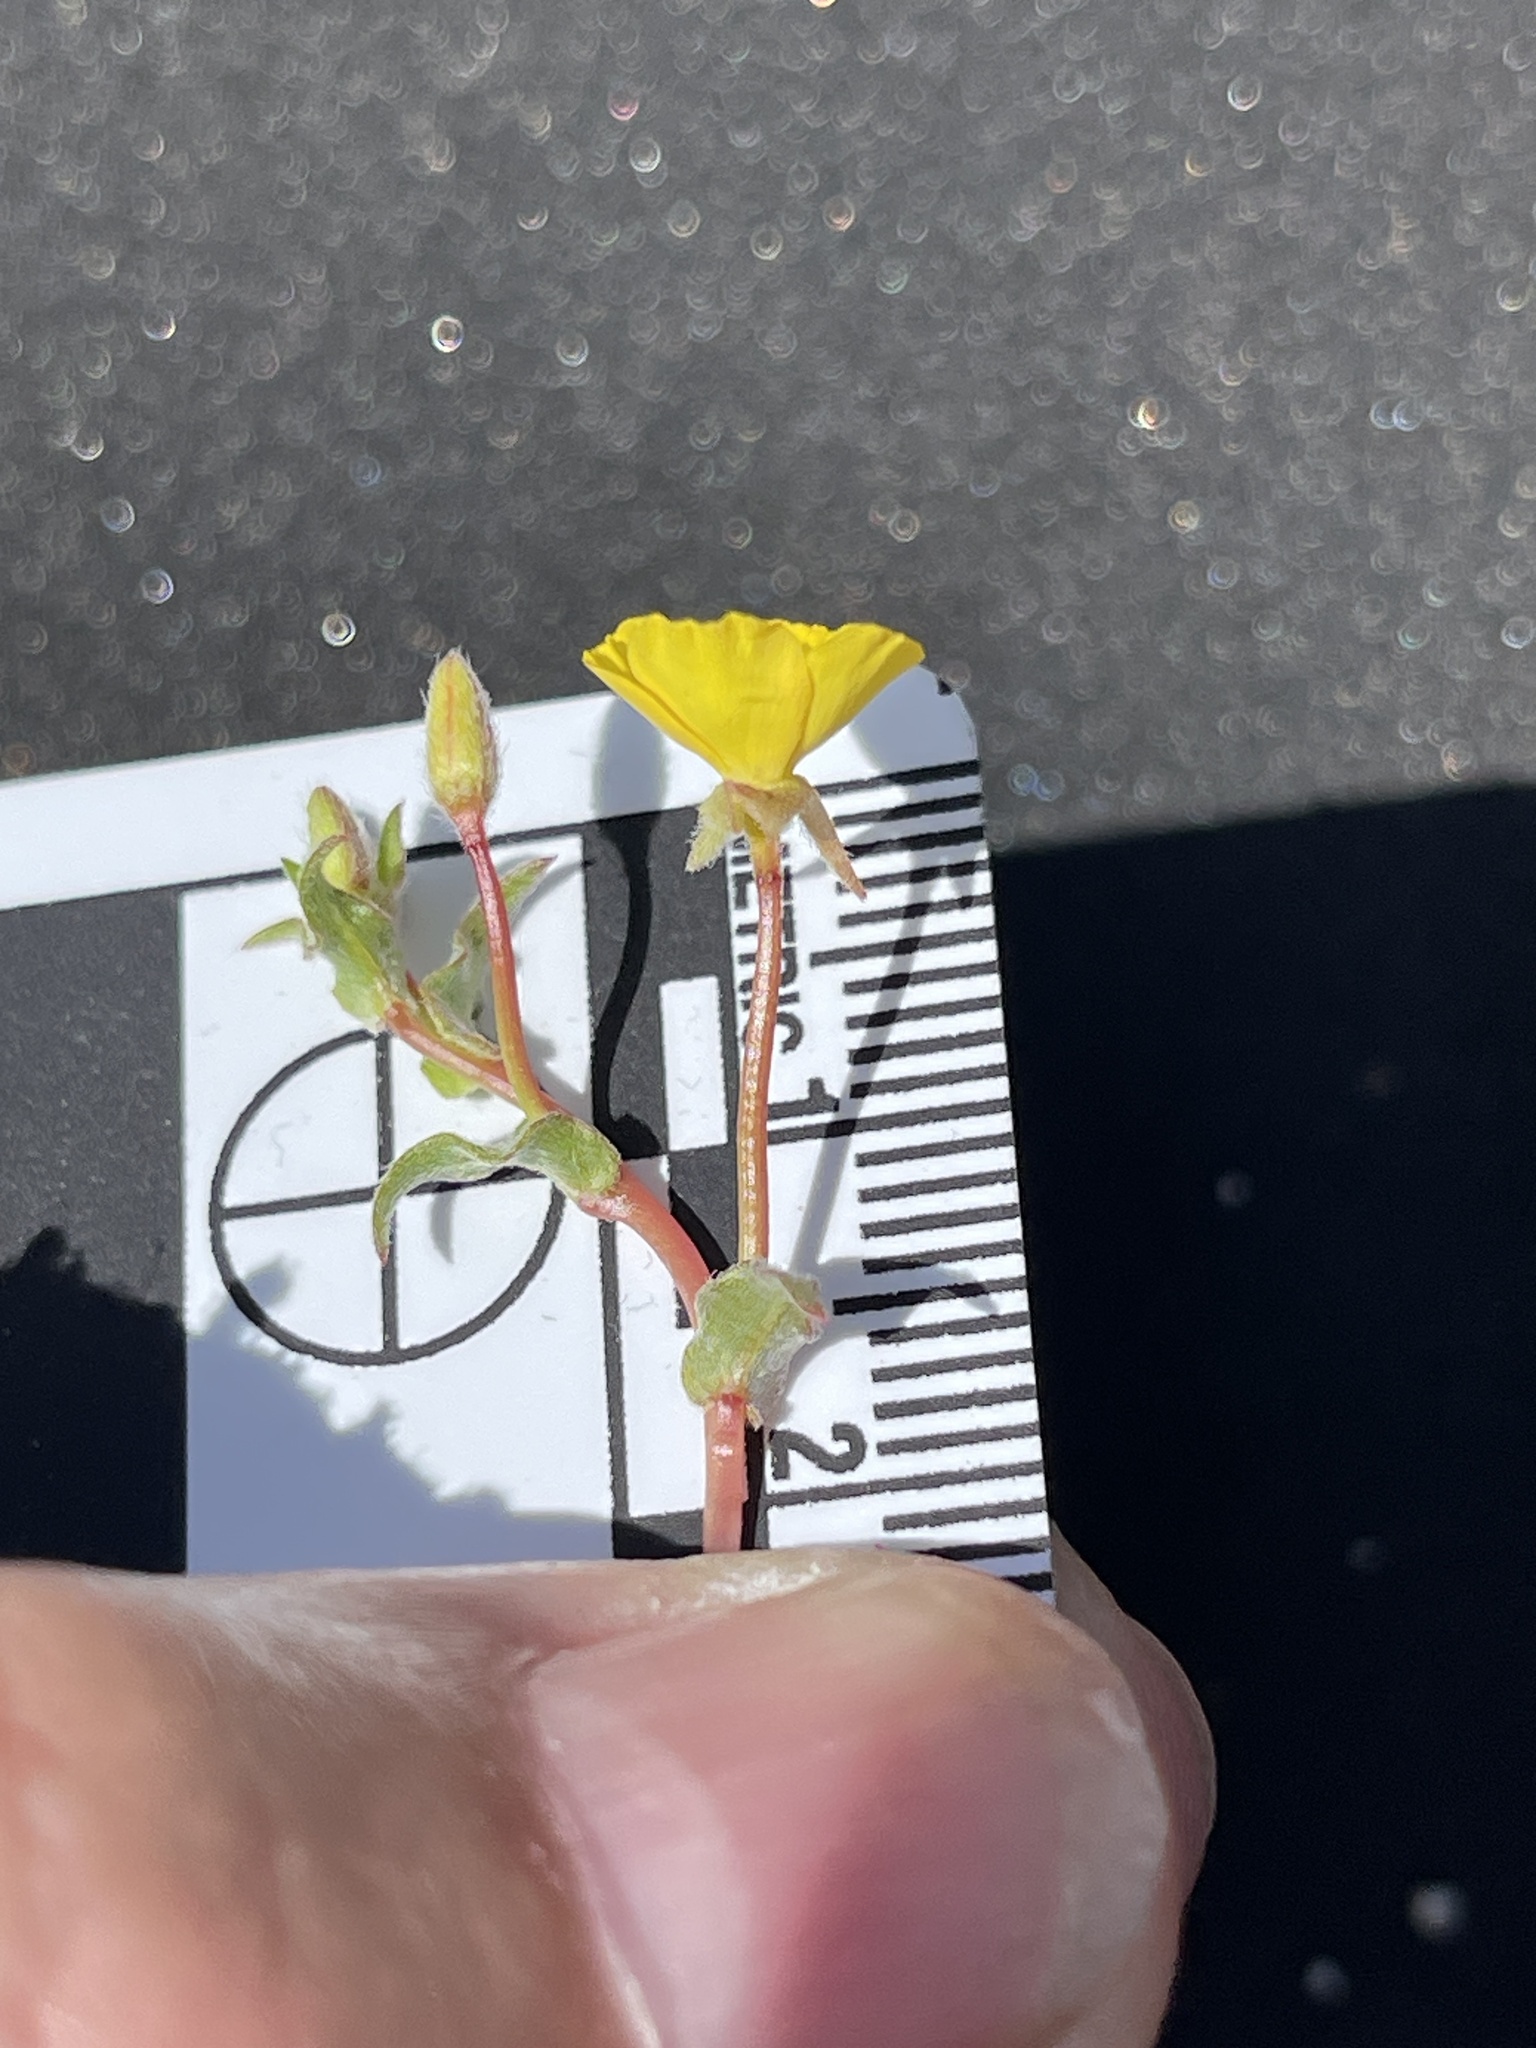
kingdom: Plantae
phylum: Tracheophyta
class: Magnoliopsida
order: Myrtales
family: Onagraceae
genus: Camissoniopsis
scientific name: Camissoniopsis pallida
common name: Paleyellow suncup
